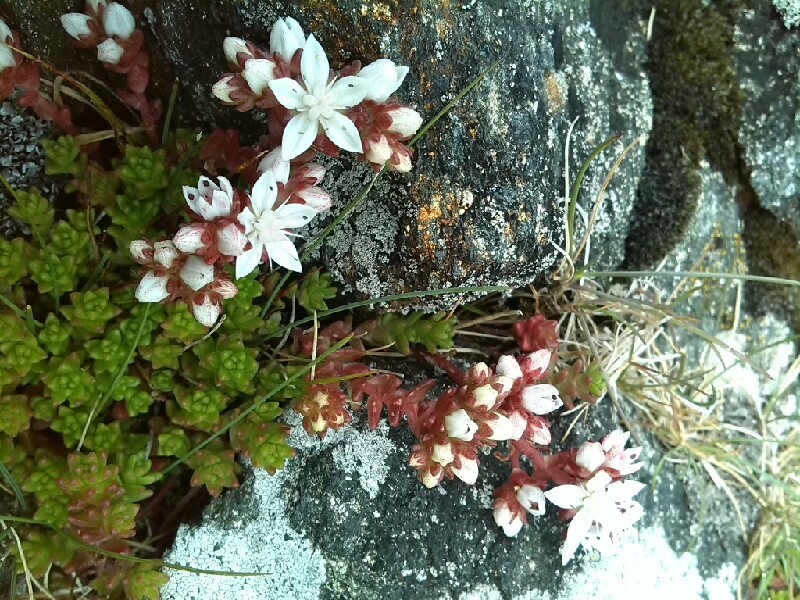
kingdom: Plantae
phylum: Tracheophyta
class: Magnoliopsida
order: Saxifragales
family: Crassulaceae
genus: Sedum
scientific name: Sedum anglicum
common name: English stonecrop
